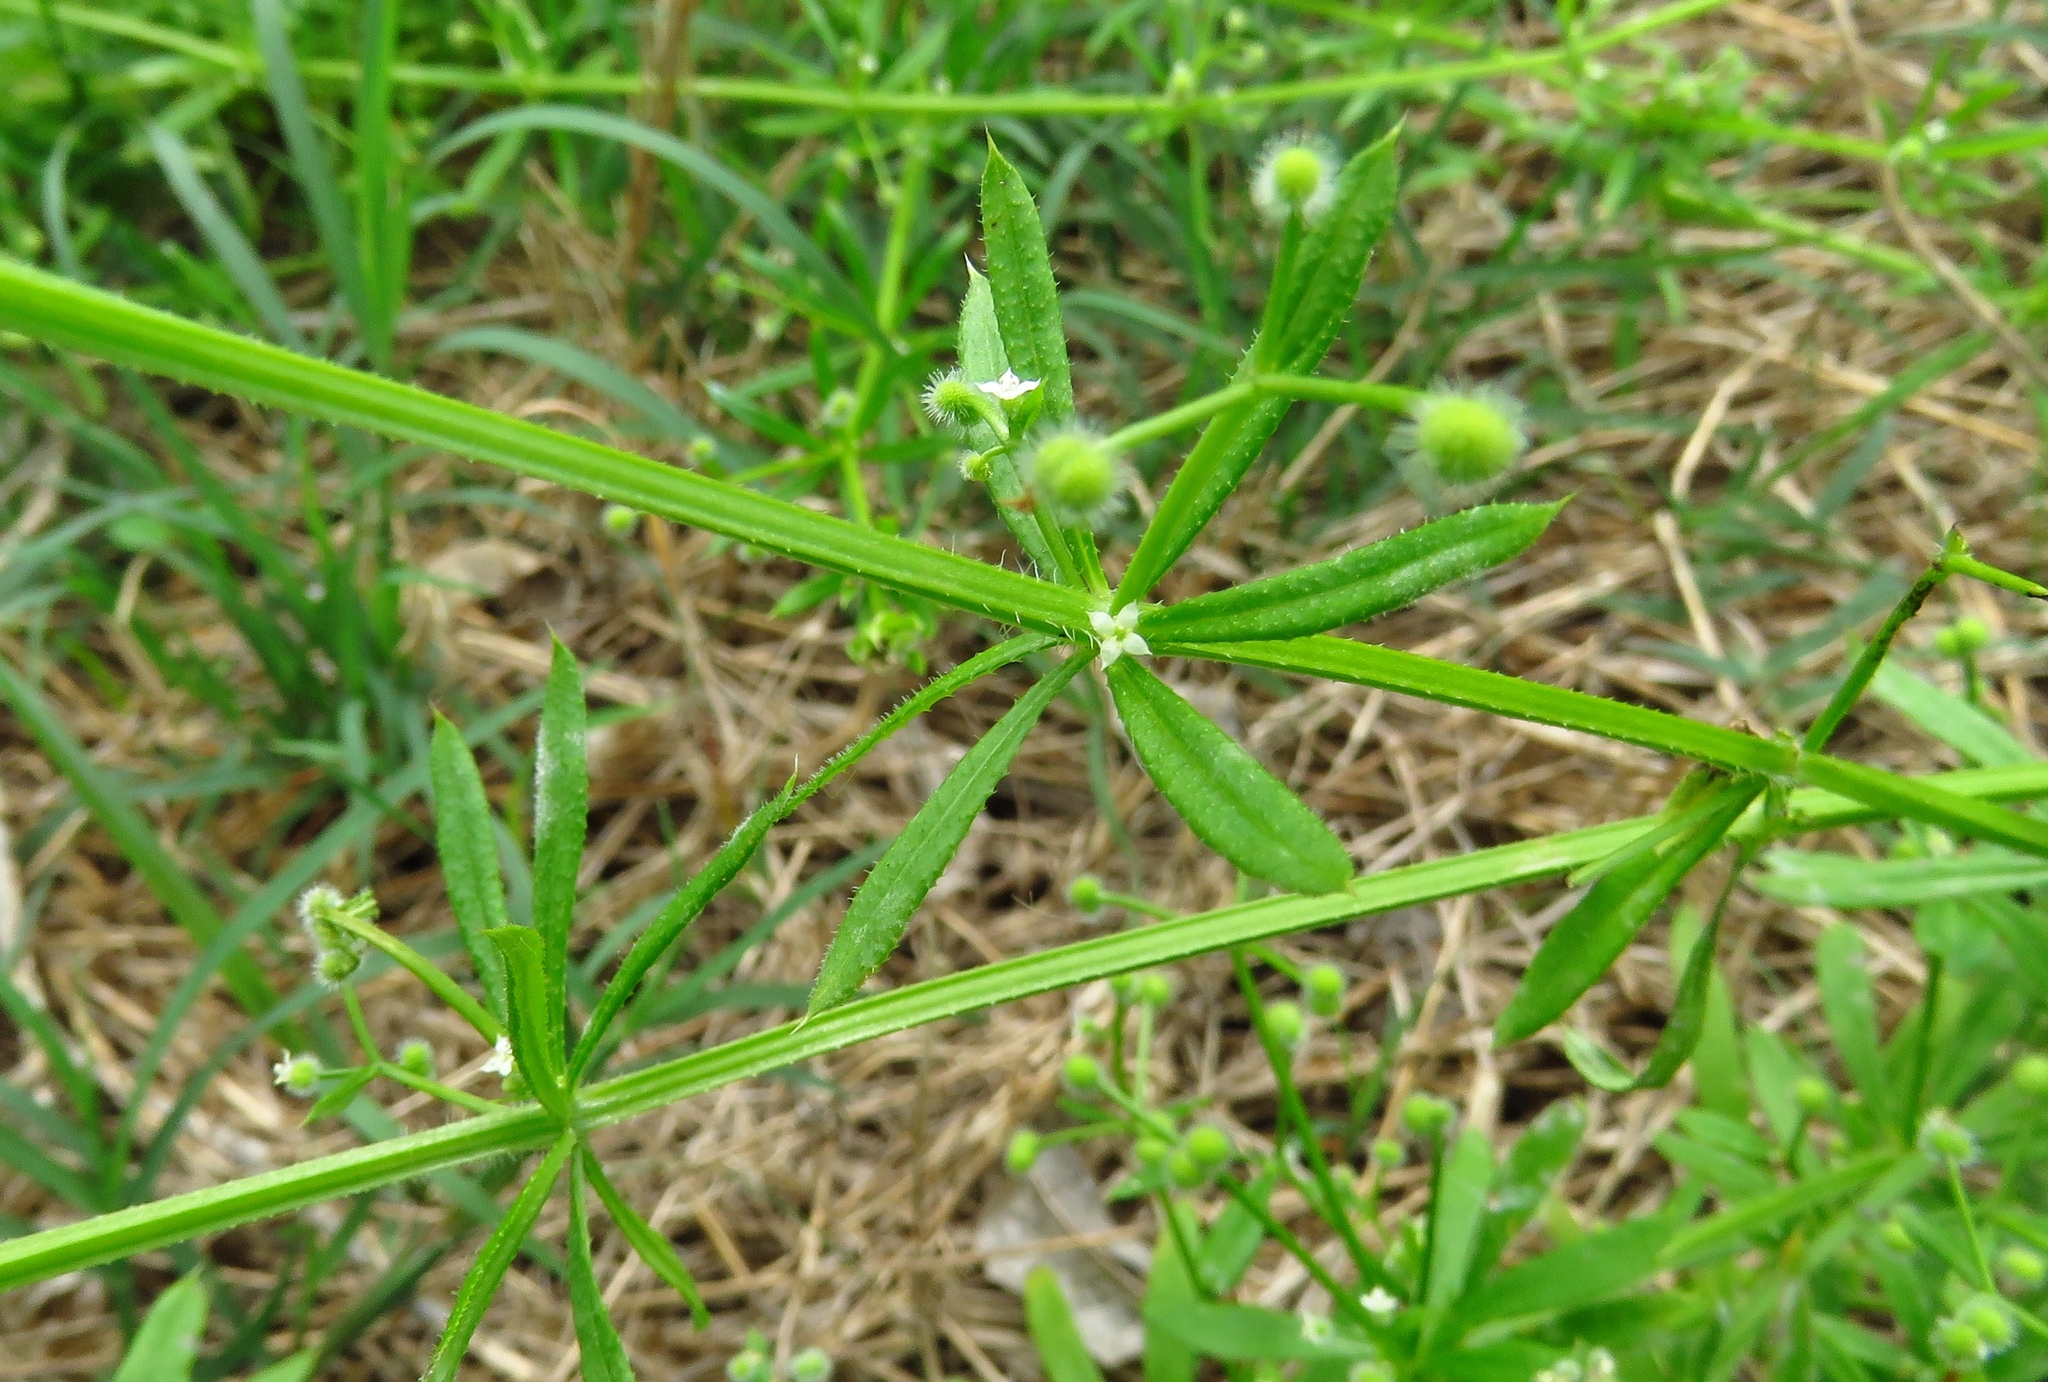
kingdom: Plantae
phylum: Tracheophyta
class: Magnoliopsida
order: Gentianales
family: Rubiaceae
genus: Galium
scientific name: Galium aparine
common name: Cleavers
